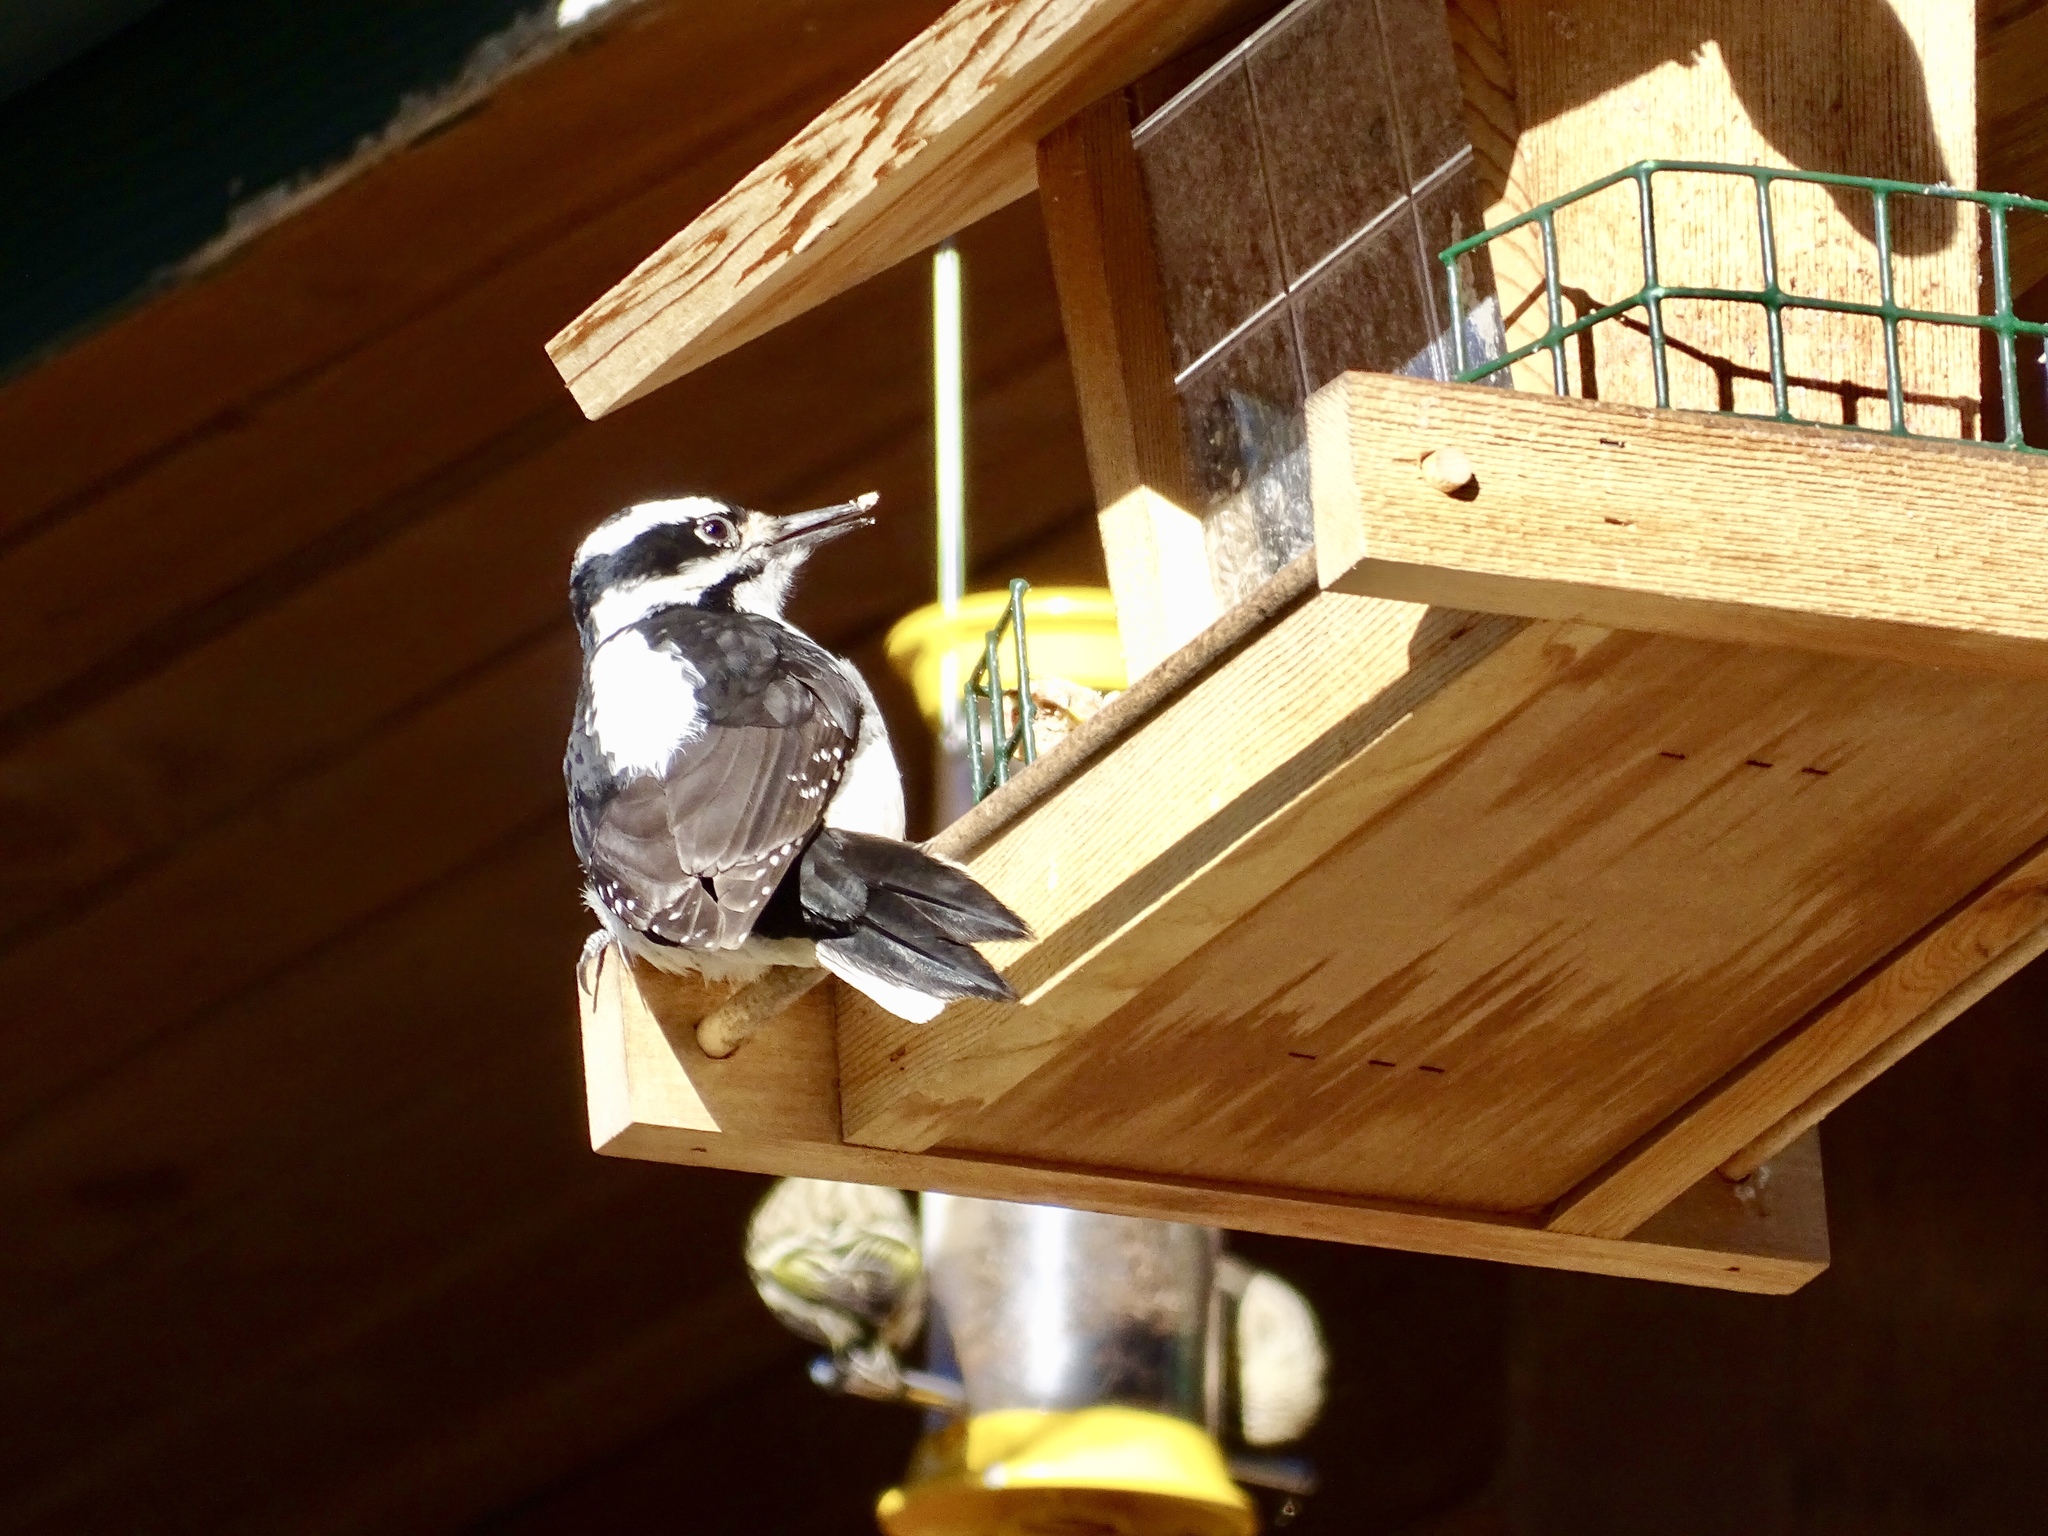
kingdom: Animalia
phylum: Chordata
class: Aves
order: Piciformes
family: Picidae
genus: Leuconotopicus
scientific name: Leuconotopicus villosus
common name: Hairy woodpecker
